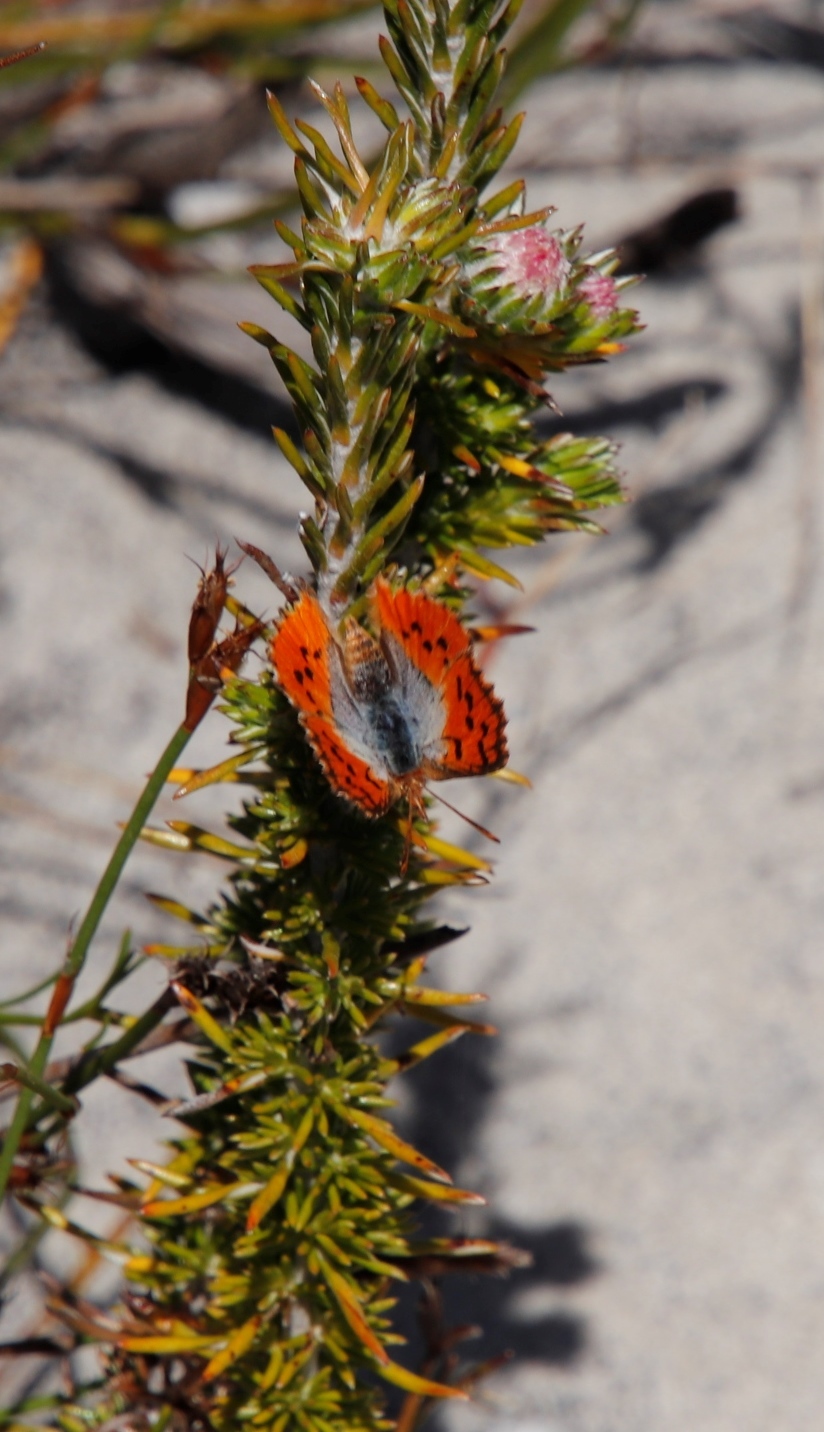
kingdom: Animalia
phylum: Arthropoda
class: Insecta
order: Lepidoptera
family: Lycaenidae
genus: Chrysoritis
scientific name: Chrysoritis thysbe
